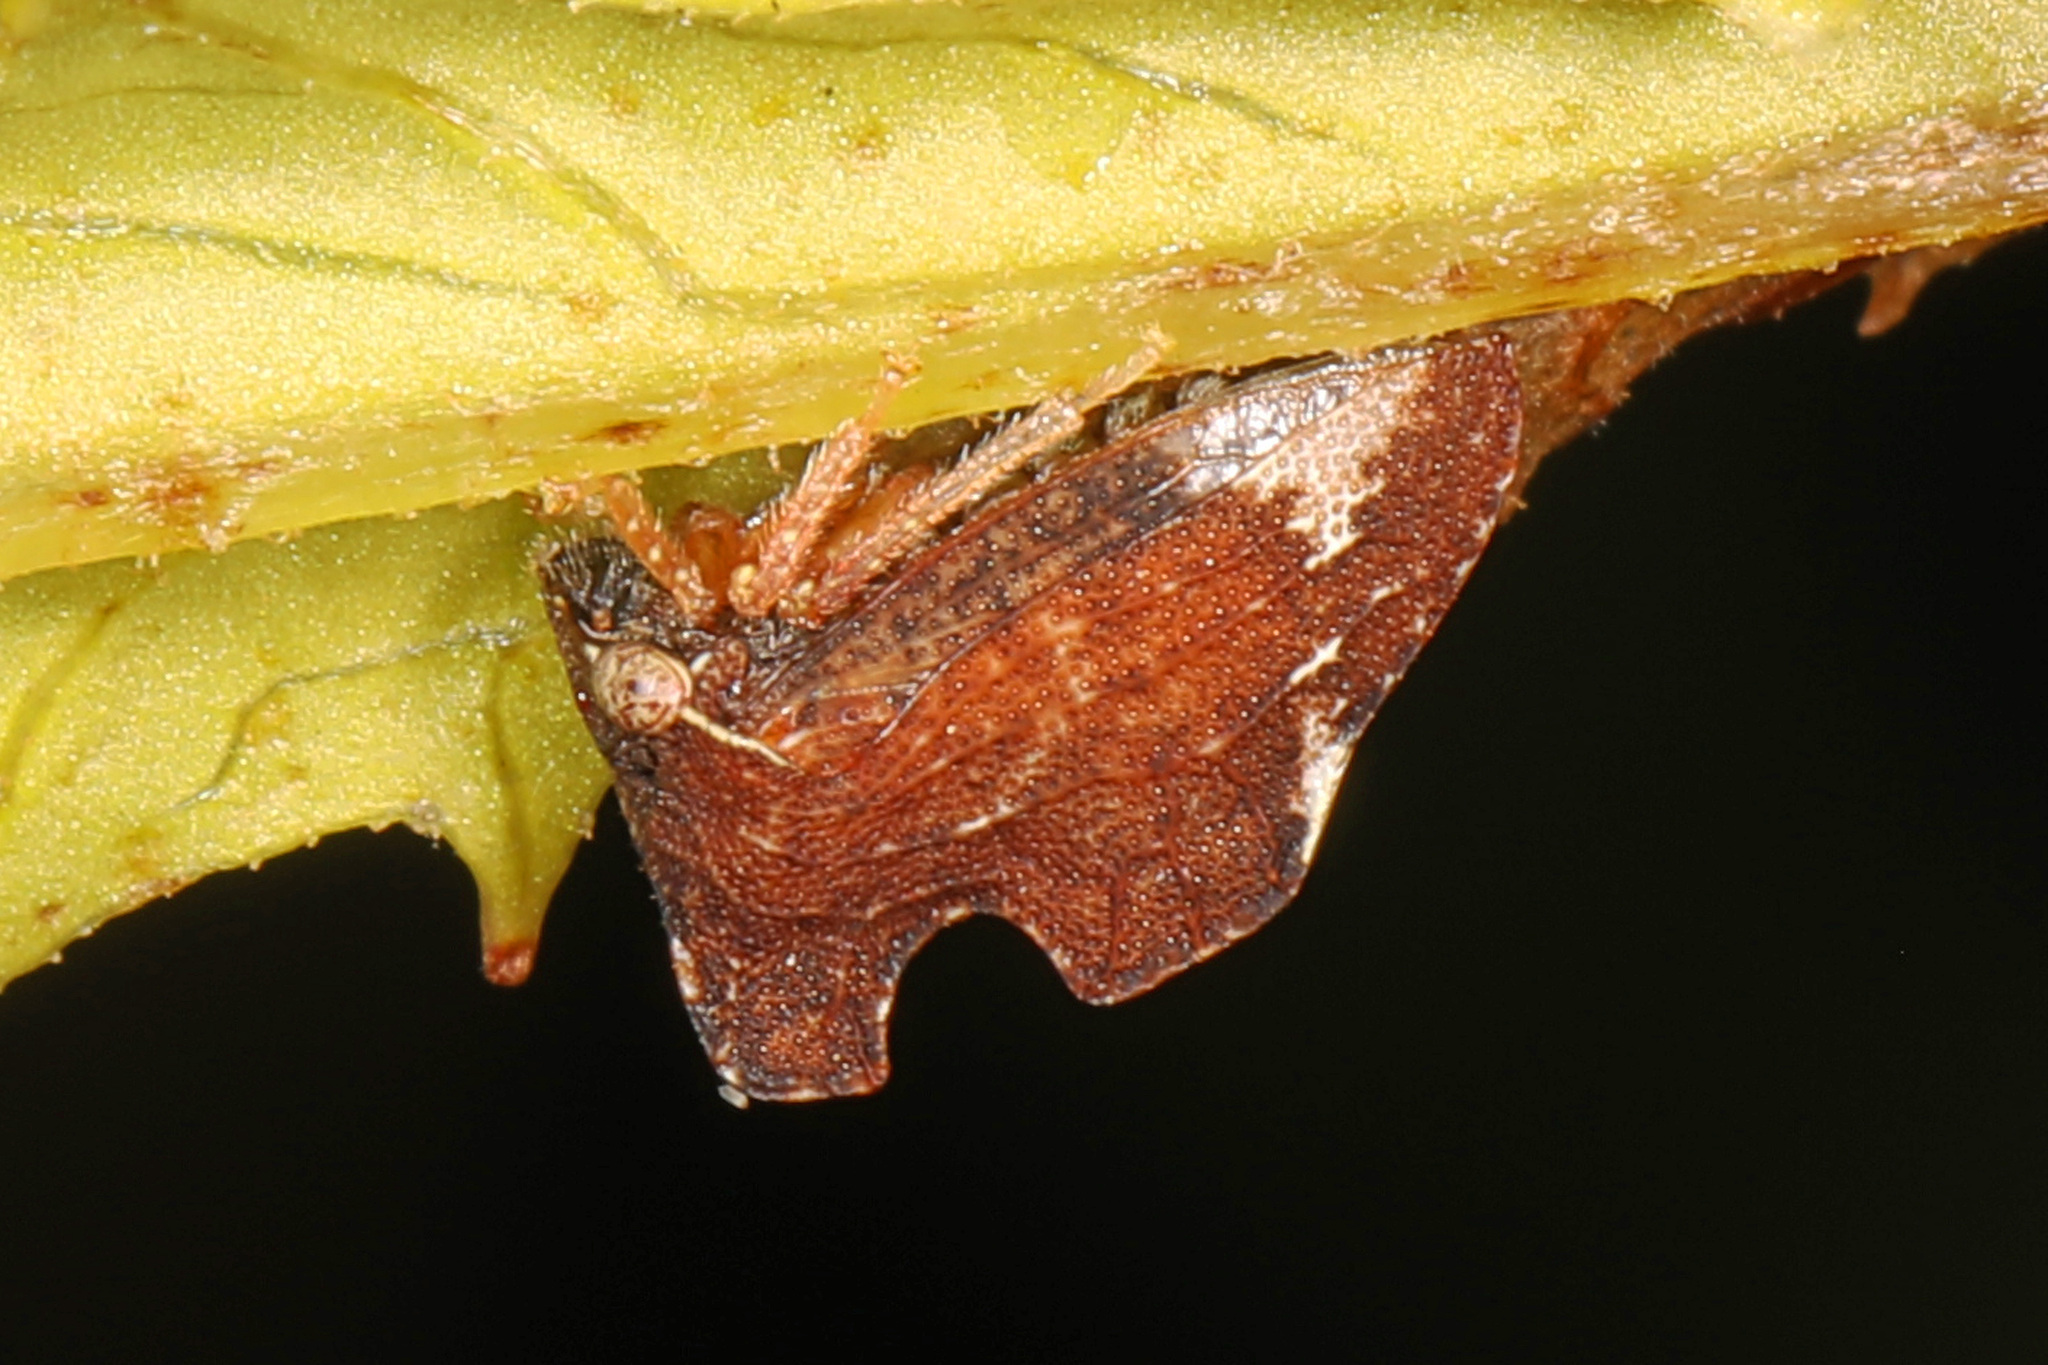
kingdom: Animalia
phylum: Arthropoda
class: Insecta
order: Hemiptera
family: Membracidae
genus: Entylia
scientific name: Entylia carinata
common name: Keeled treehopper
